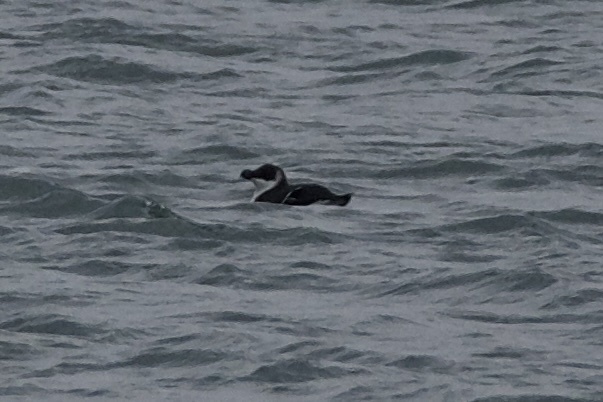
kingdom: Animalia
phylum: Chordata
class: Aves
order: Charadriiformes
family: Alcidae
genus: Alca
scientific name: Alca torda
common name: Razorbill
